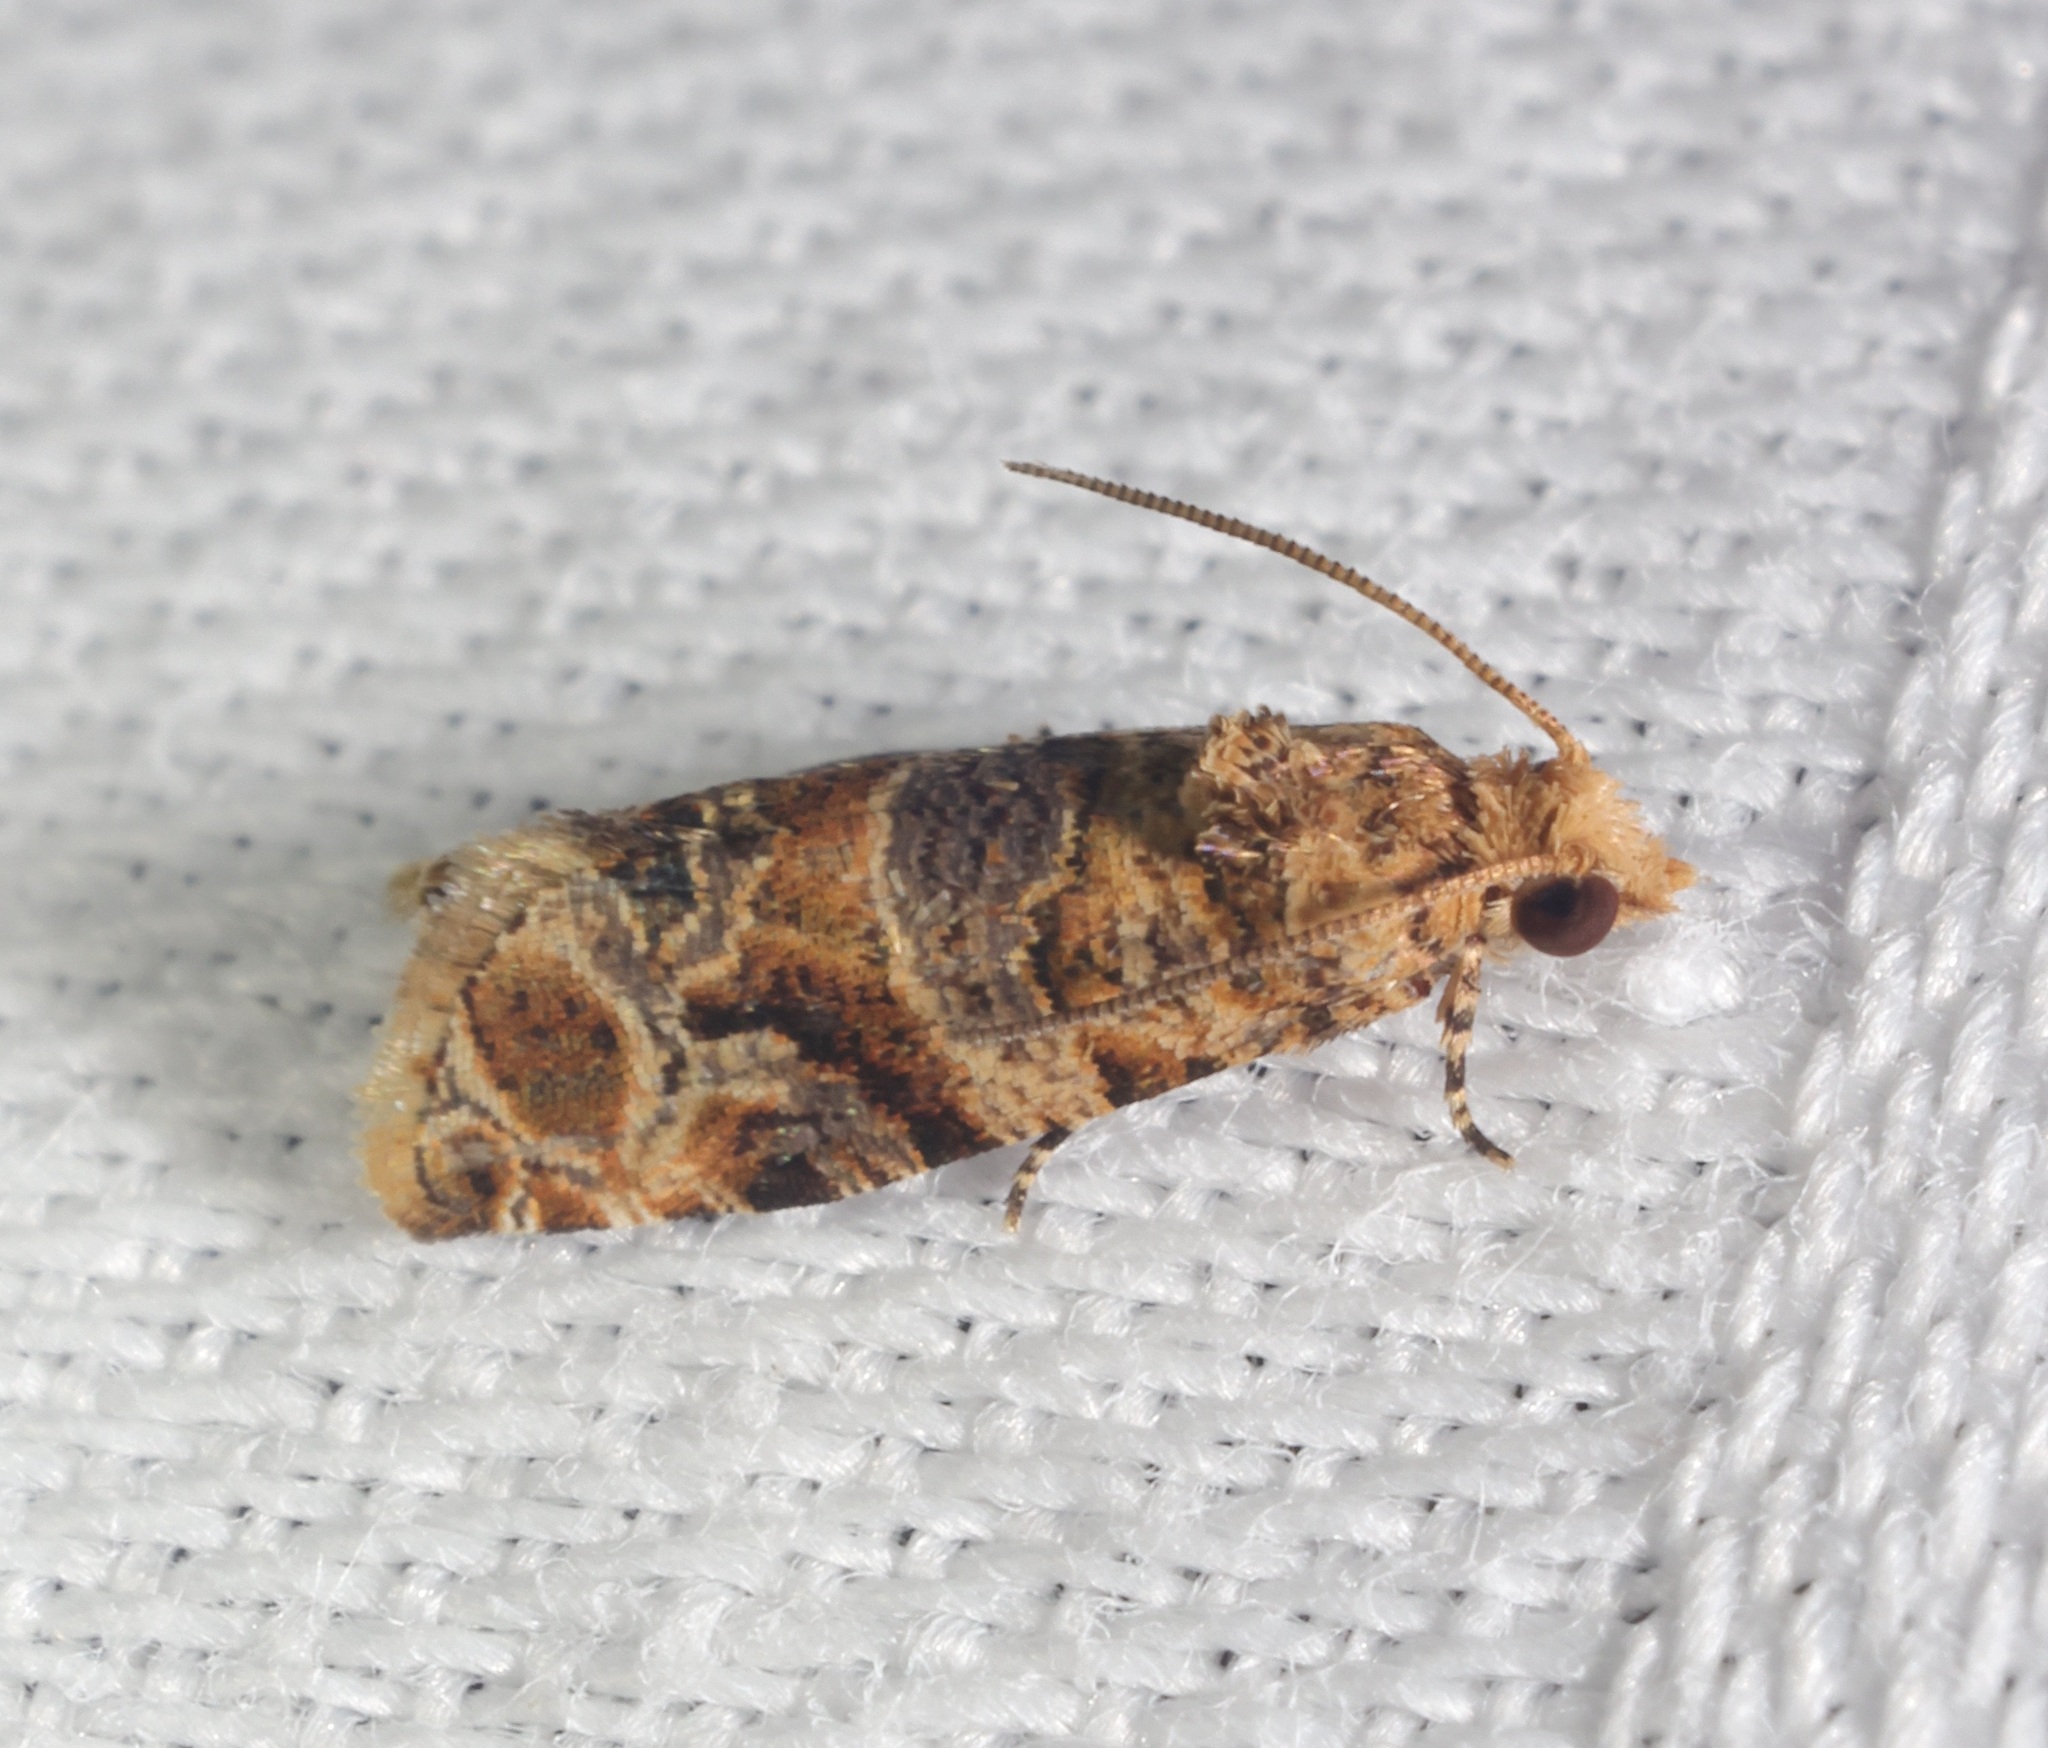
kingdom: Animalia
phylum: Arthropoda
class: Insecta
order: Lepidoptera
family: Tortricidae
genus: Lobesia
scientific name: Lobesia aeolopa
